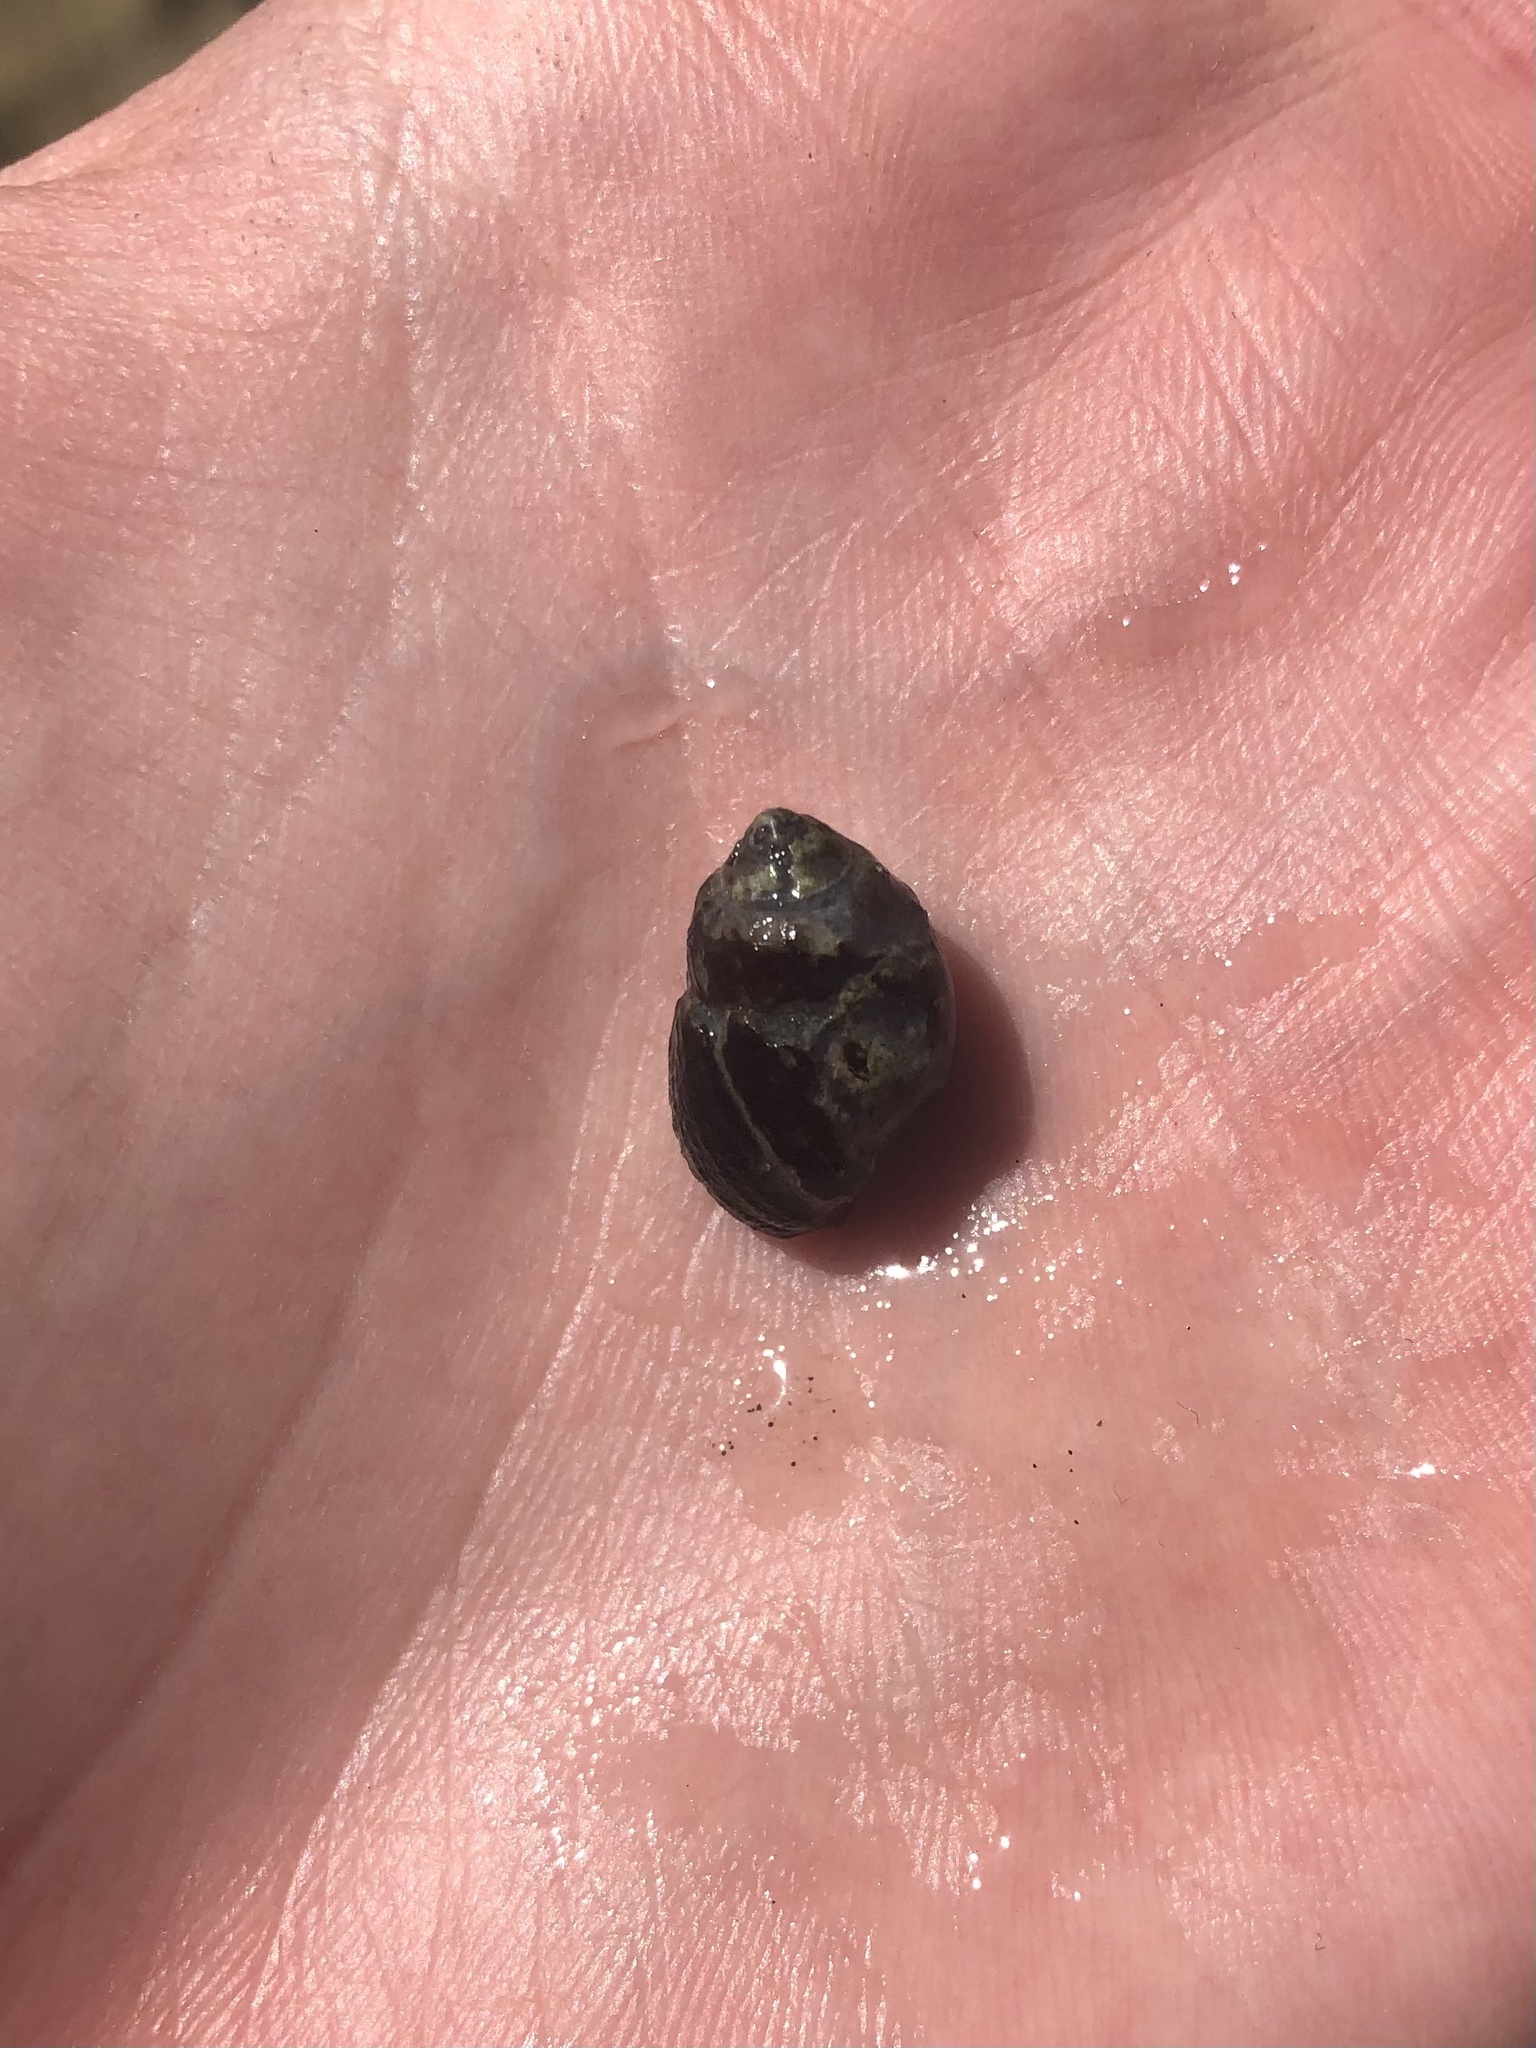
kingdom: Animalia
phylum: Mollusca
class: Gastropoda
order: Neogastropoda
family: Nassariidae
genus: Ilyanassa
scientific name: Ilyanassa obsoleta
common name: Eastern mudsnail
